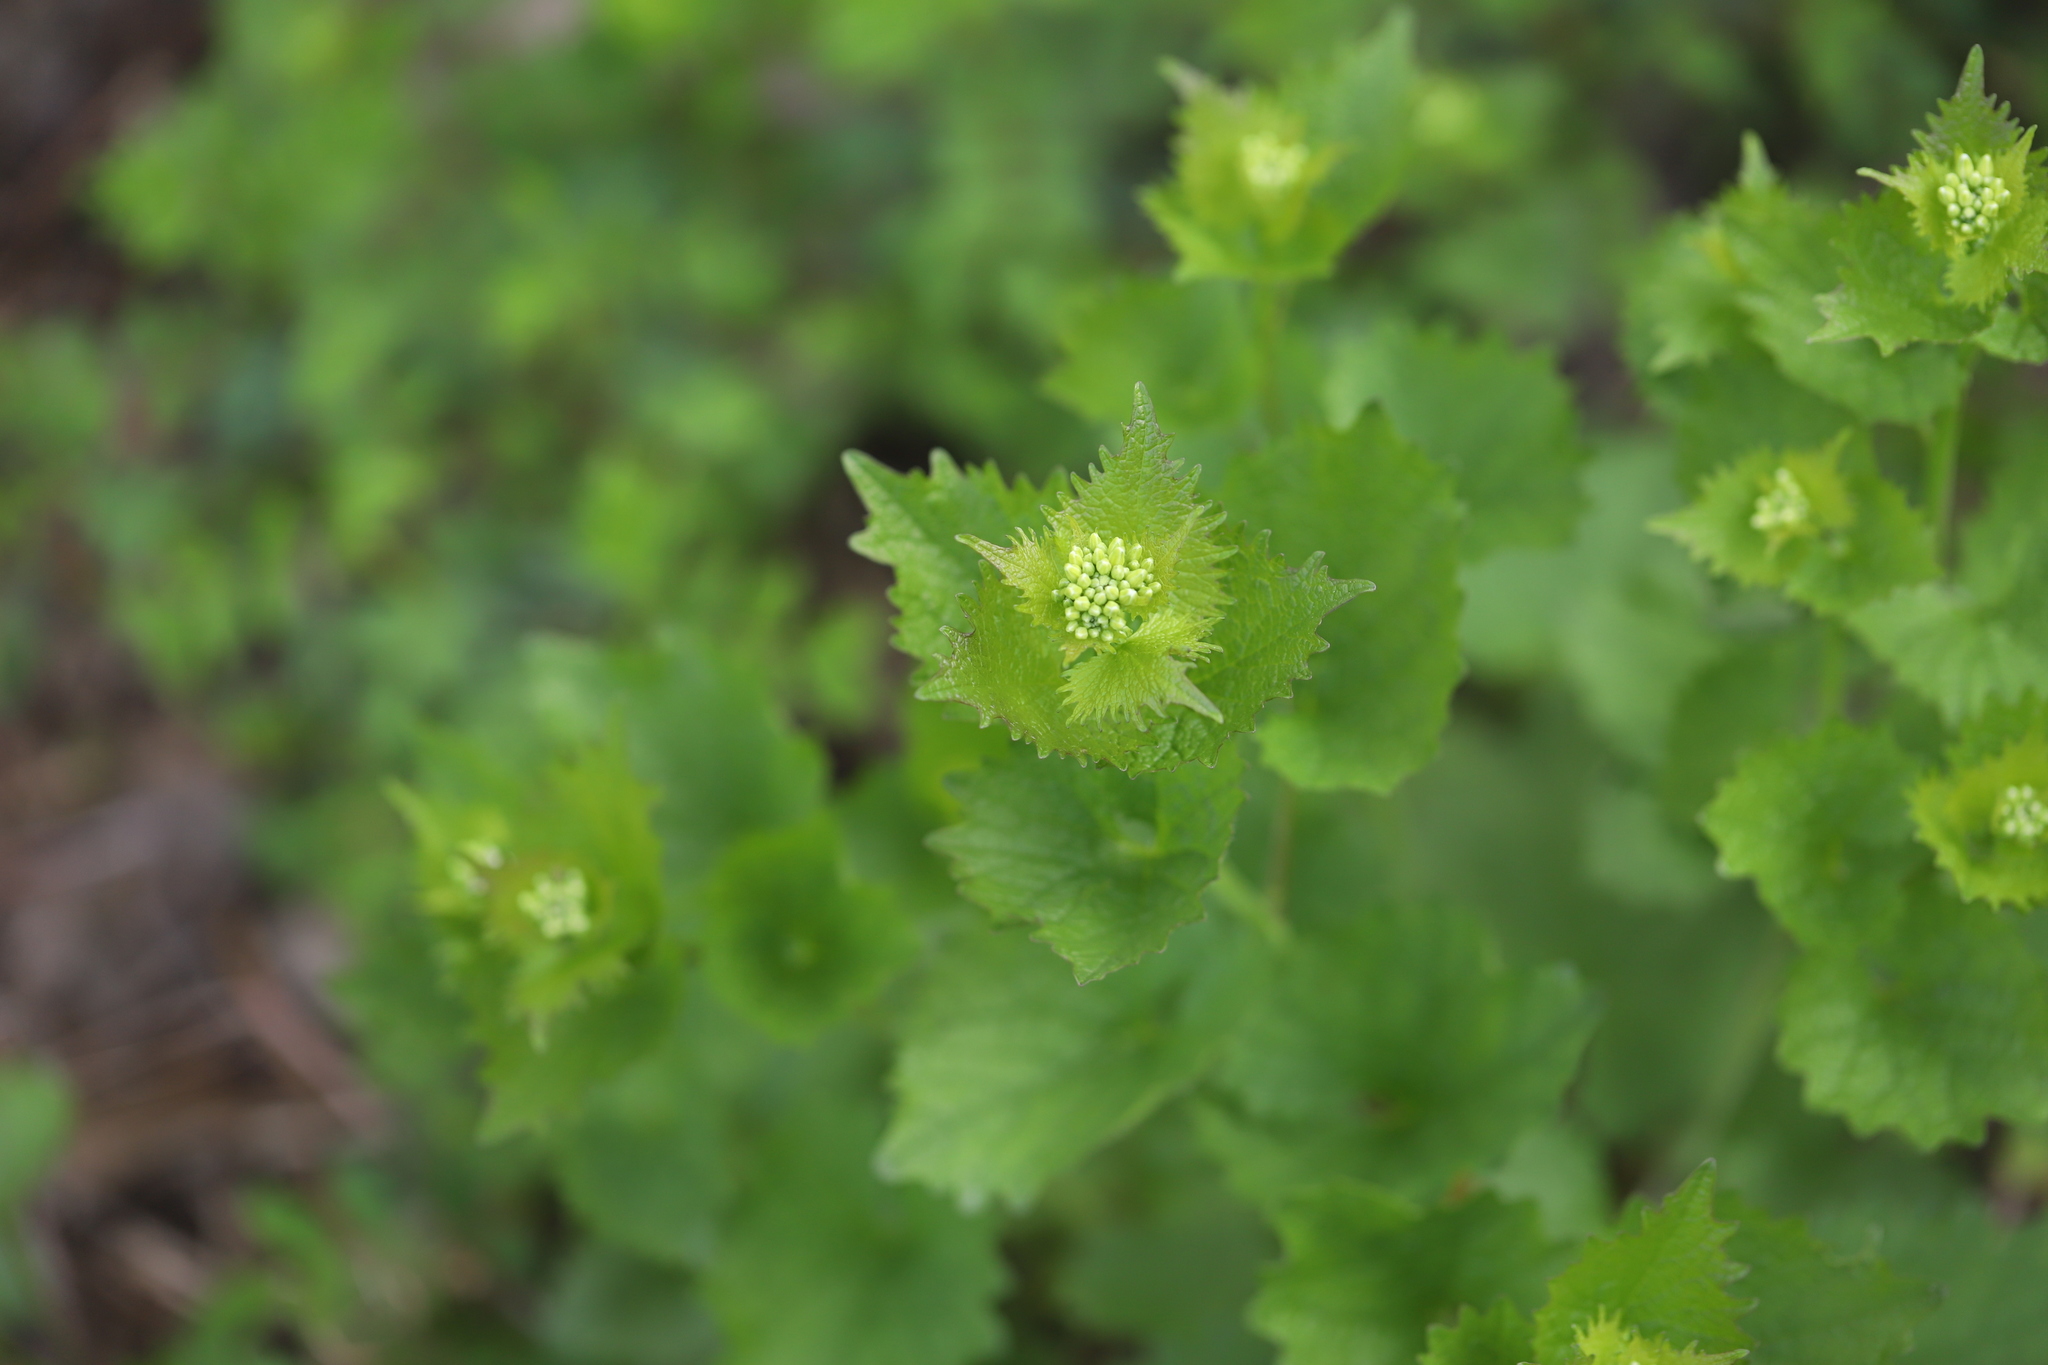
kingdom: Plantae
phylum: Tracheophyta
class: Magnoliopsida
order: Brassicales
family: Brassicaceae
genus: Alliaria
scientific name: Alliaria petiolata
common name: Garlic mustard
